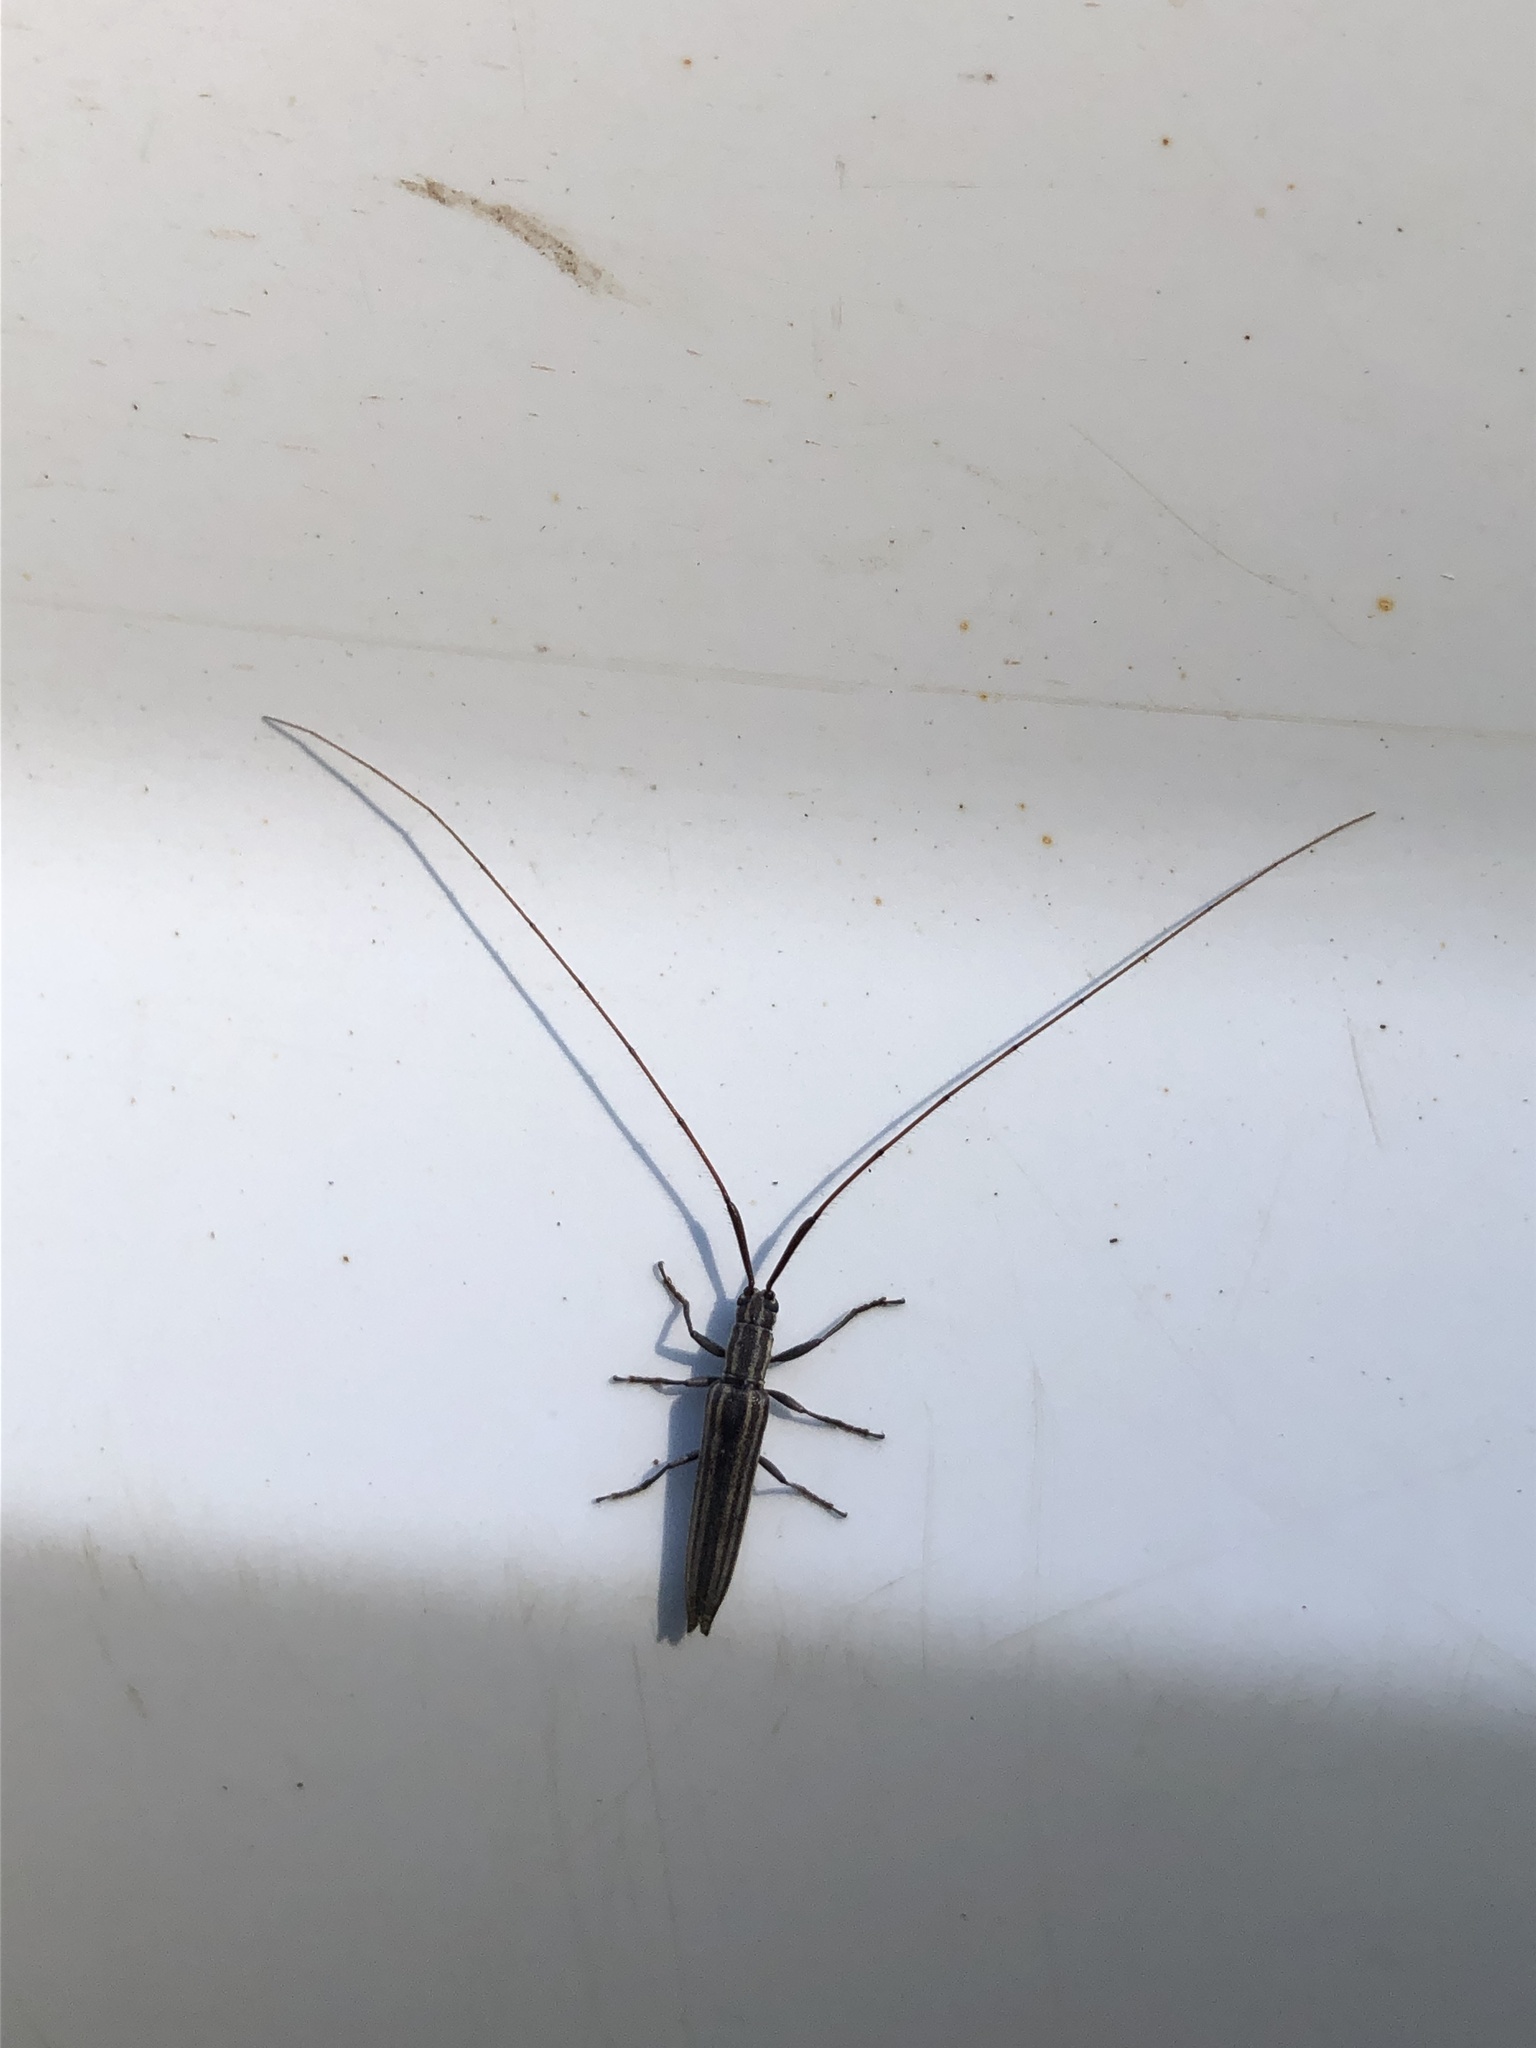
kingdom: Animalia
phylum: Arthropoda
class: Insecta
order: Coleoptera
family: Cerambycidae
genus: Hippopsis
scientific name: Hippopsis
